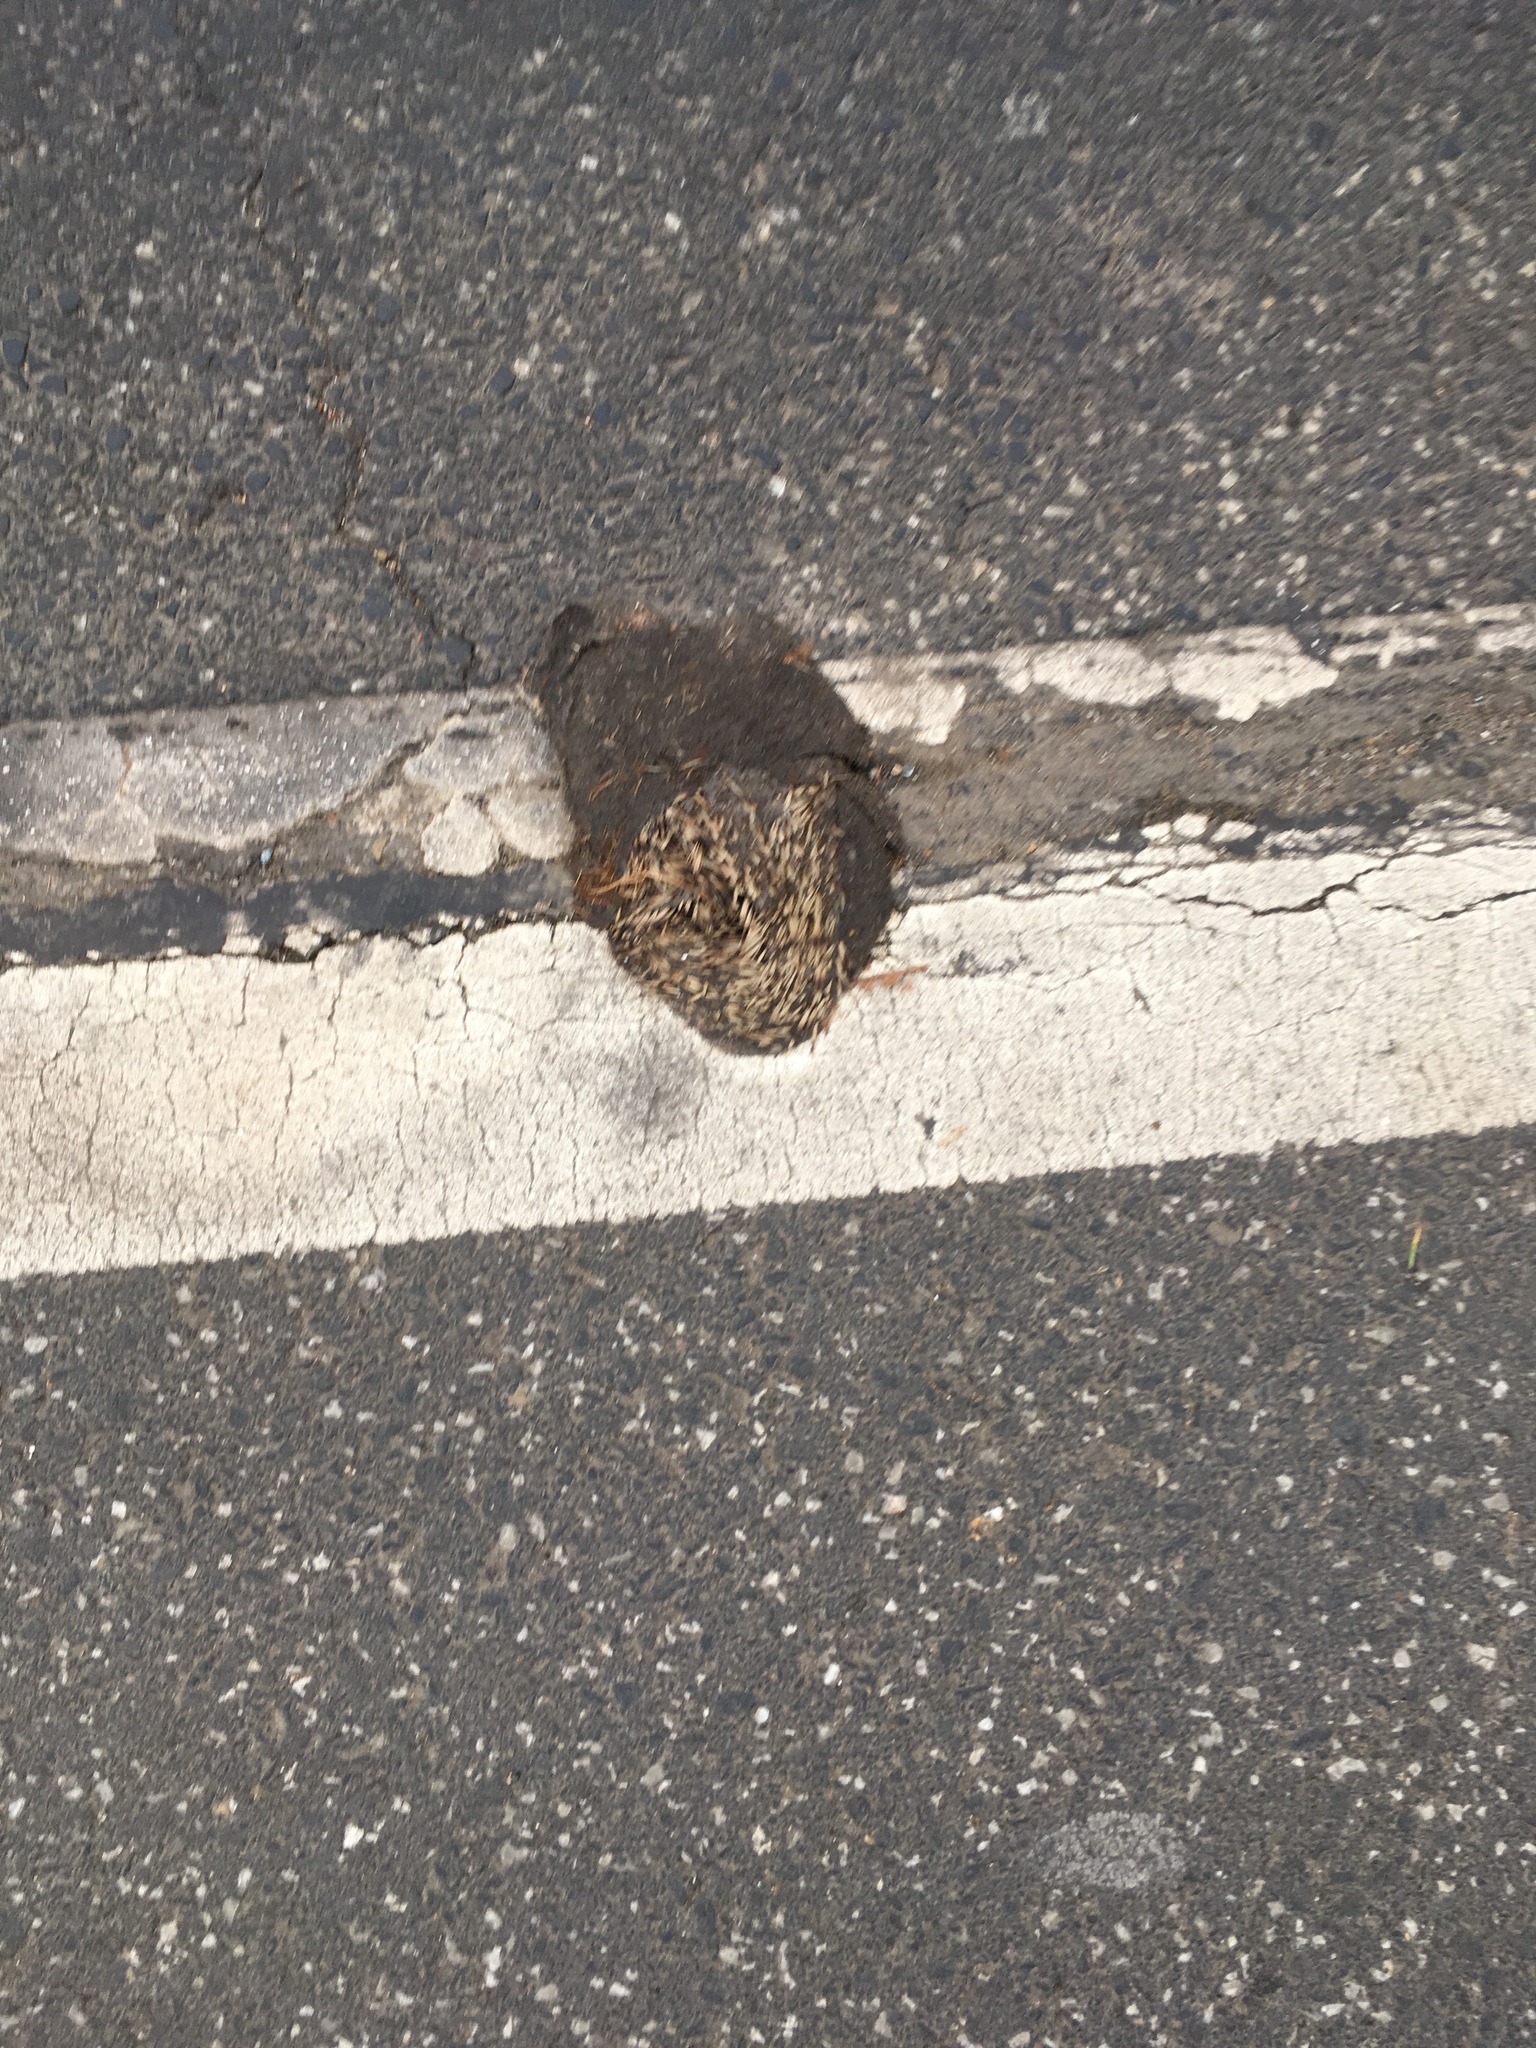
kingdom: Animalia
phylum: Chordata
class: Mammalia
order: Erinaceomorpha
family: Erinaceidae
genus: Erinaceus
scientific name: Erinaceus europaeus
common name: West european hedgehog
